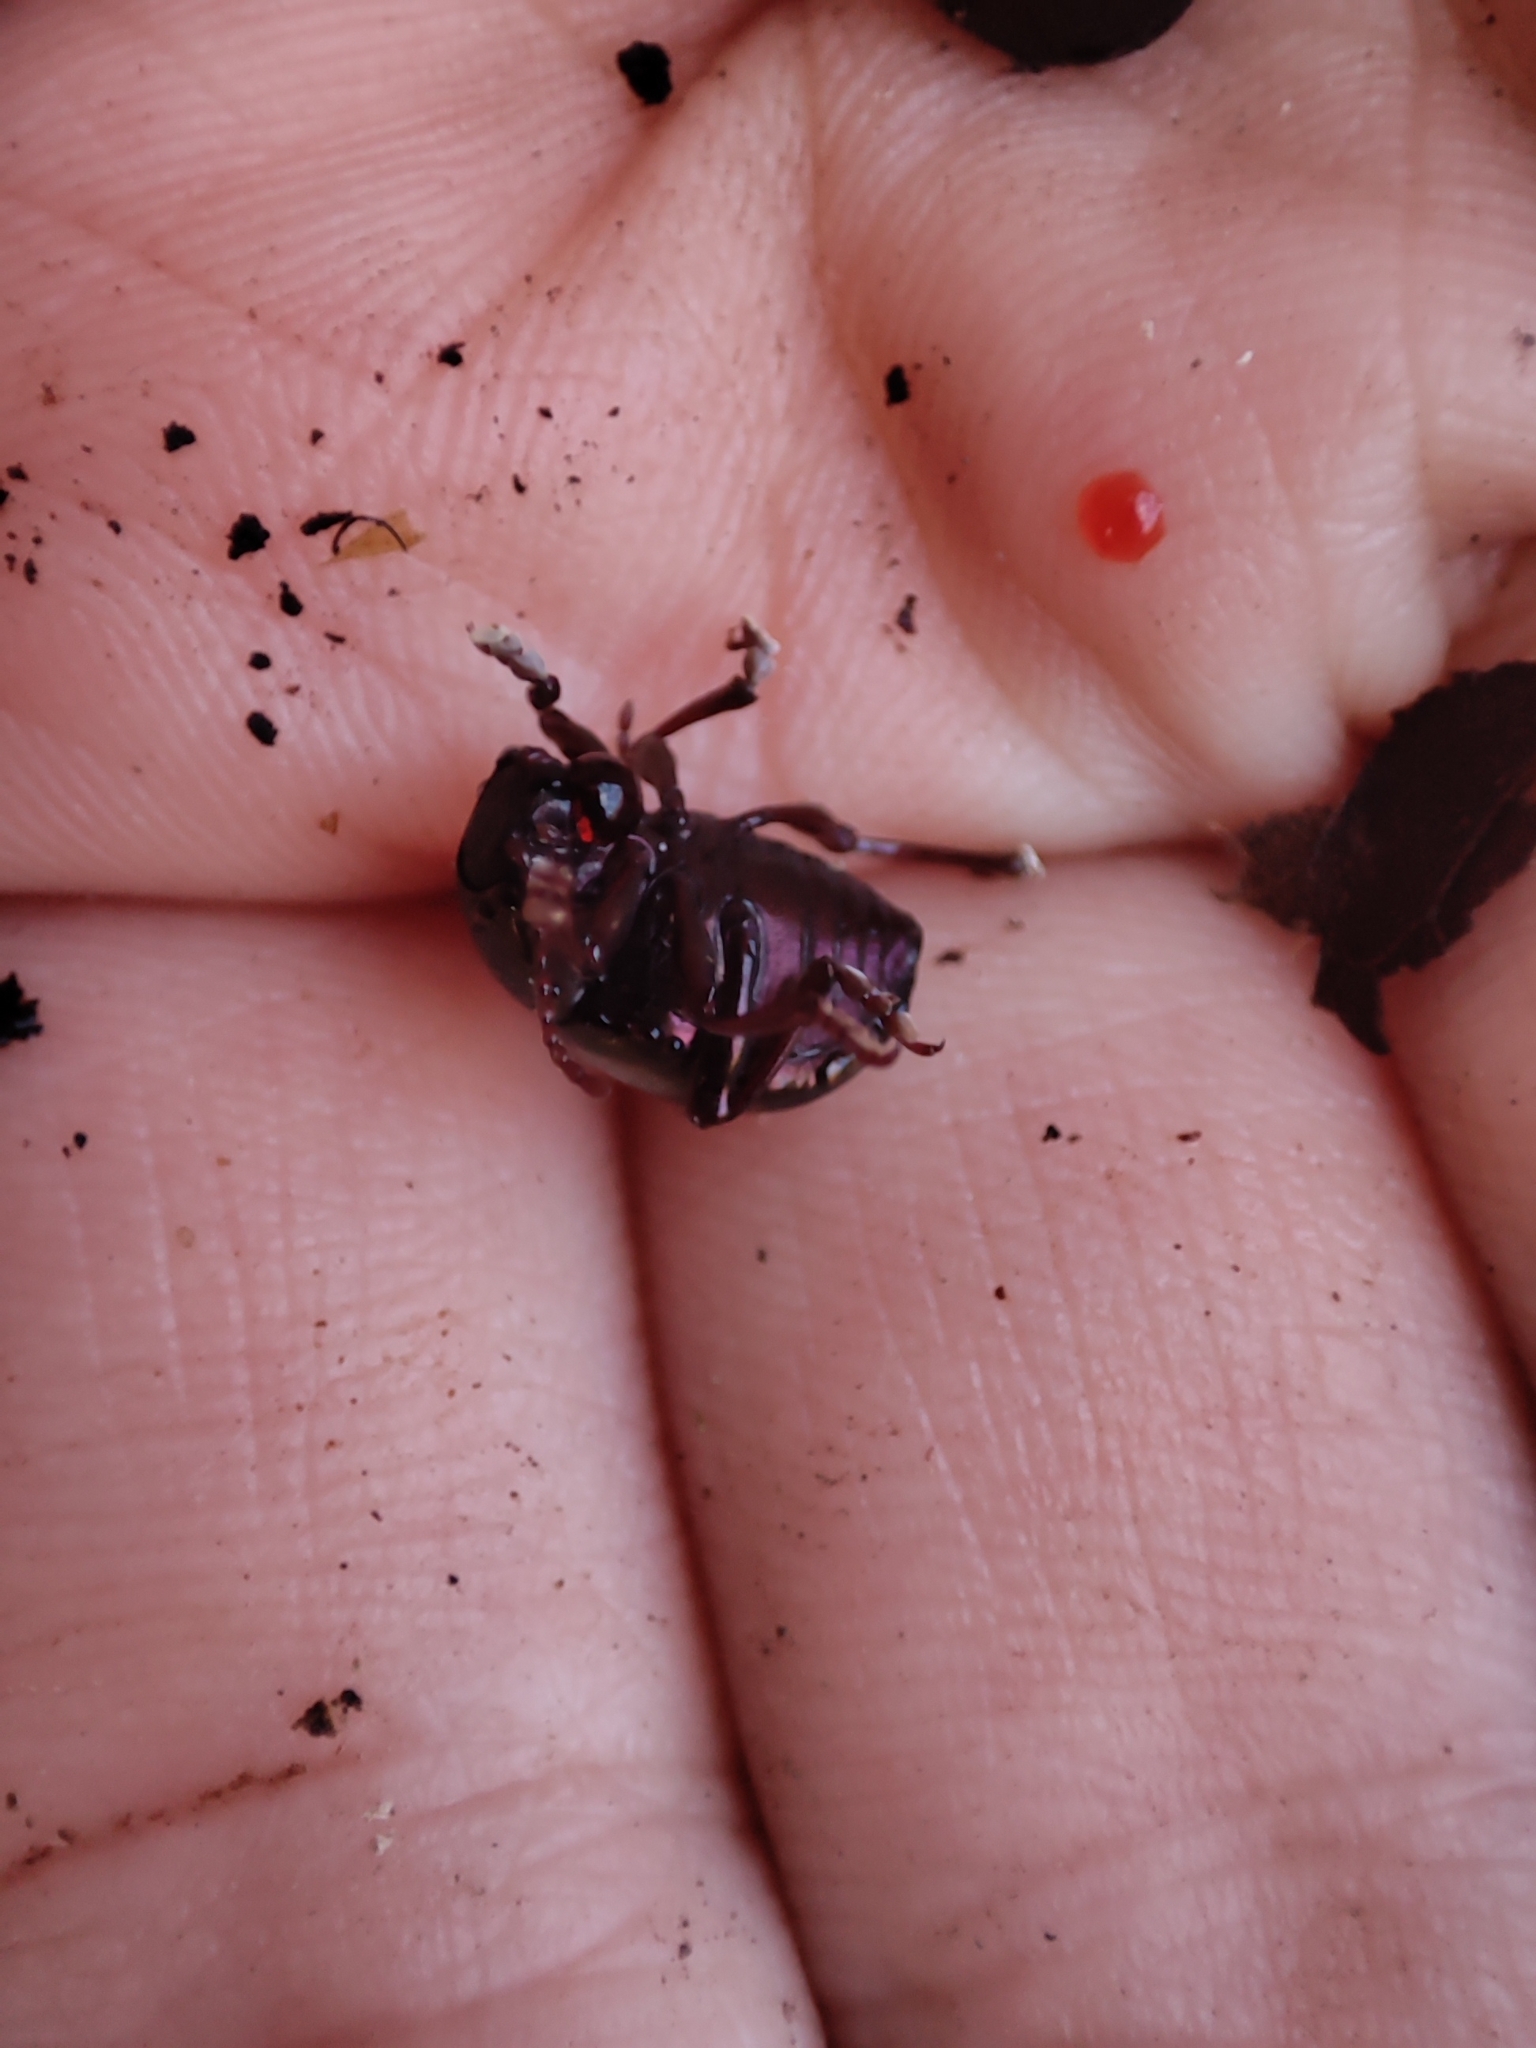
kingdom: Animalia
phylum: Arthropoda
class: Insecta
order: Coleoptera
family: Chrysomelidae
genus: Timarcha
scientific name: Timarcha hummeli
